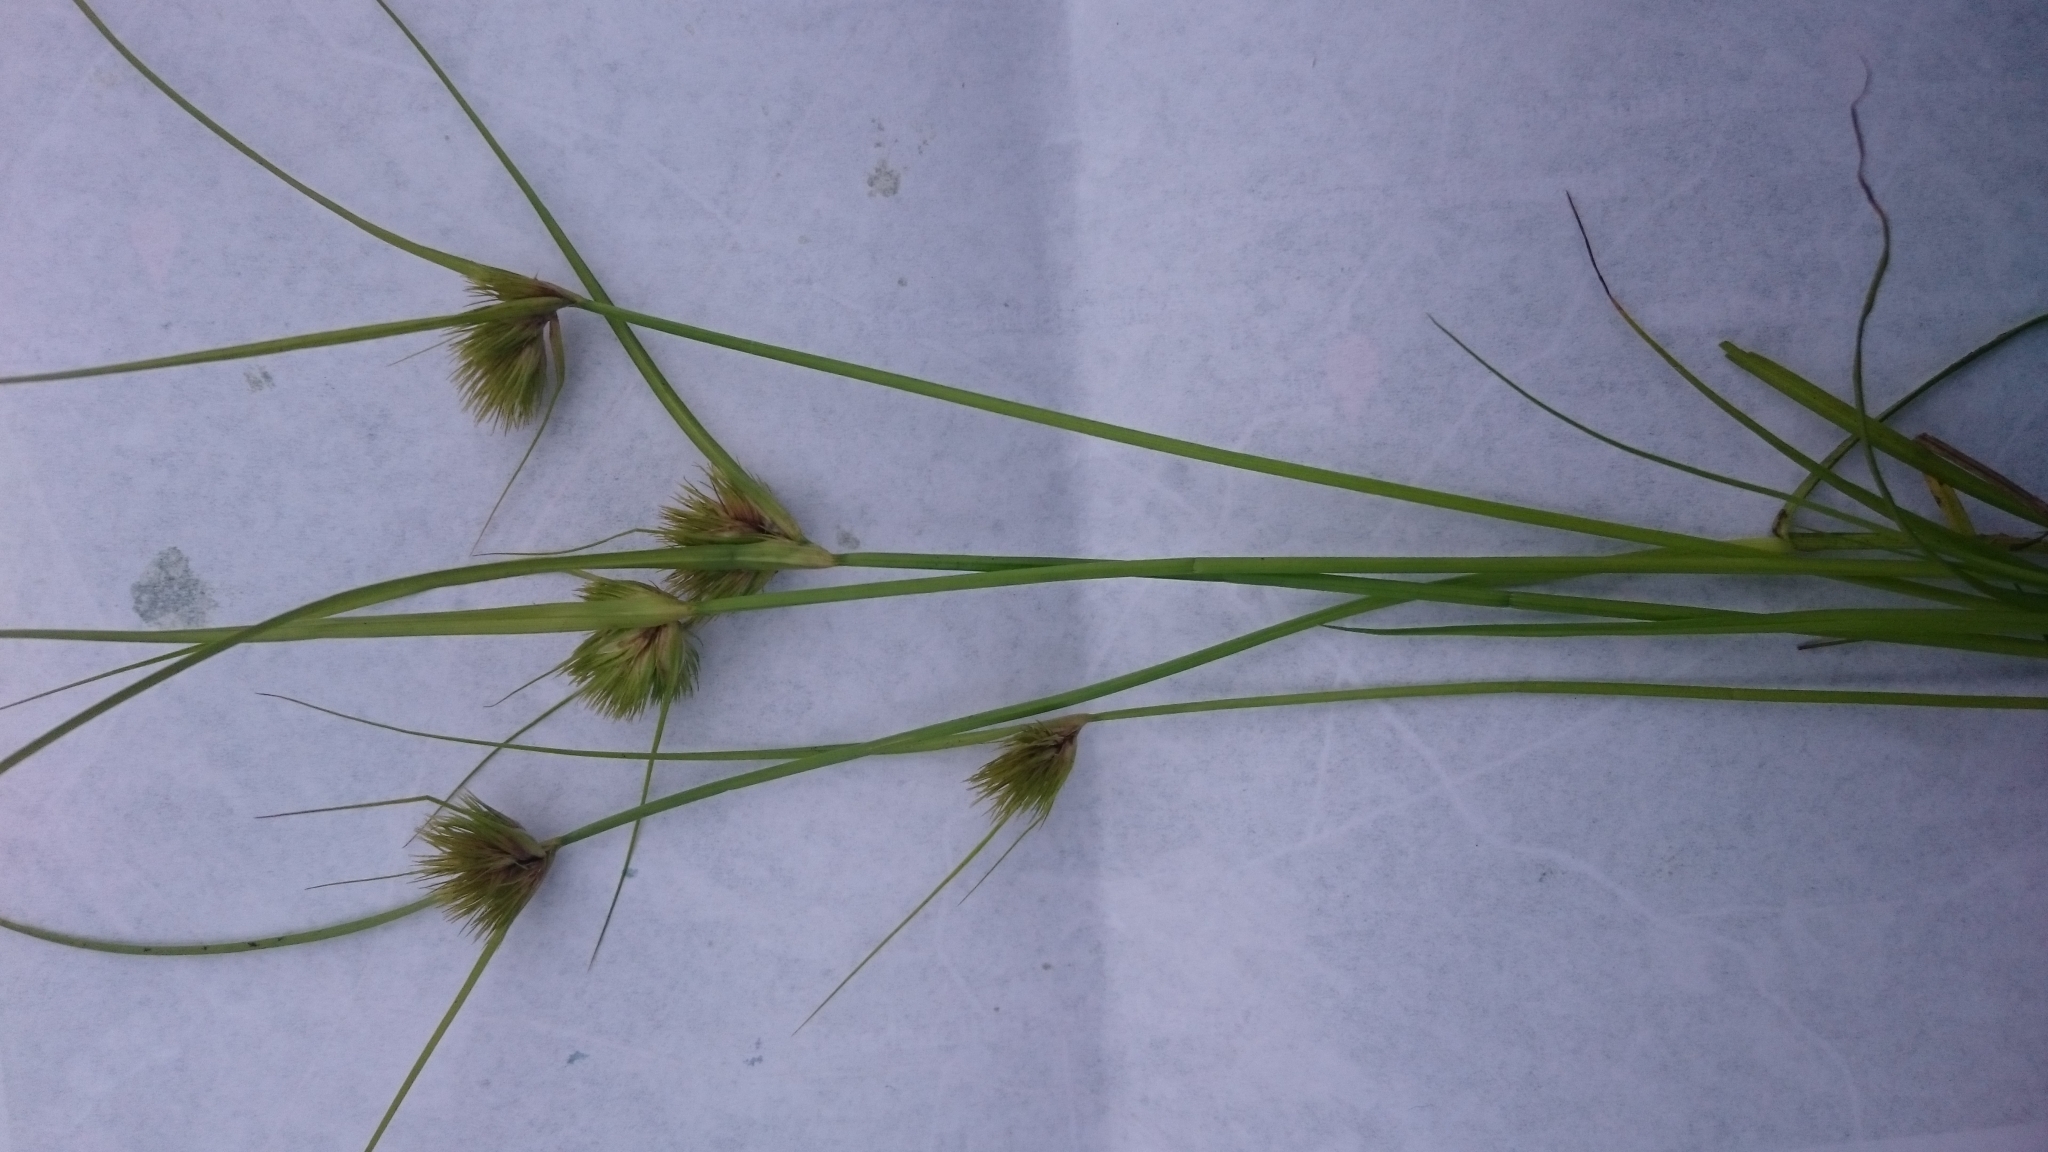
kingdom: Plantae
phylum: Tracheophyta
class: Liliopsida
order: Poales
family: Cyperaceae
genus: Carex
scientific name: Carex bohemica
